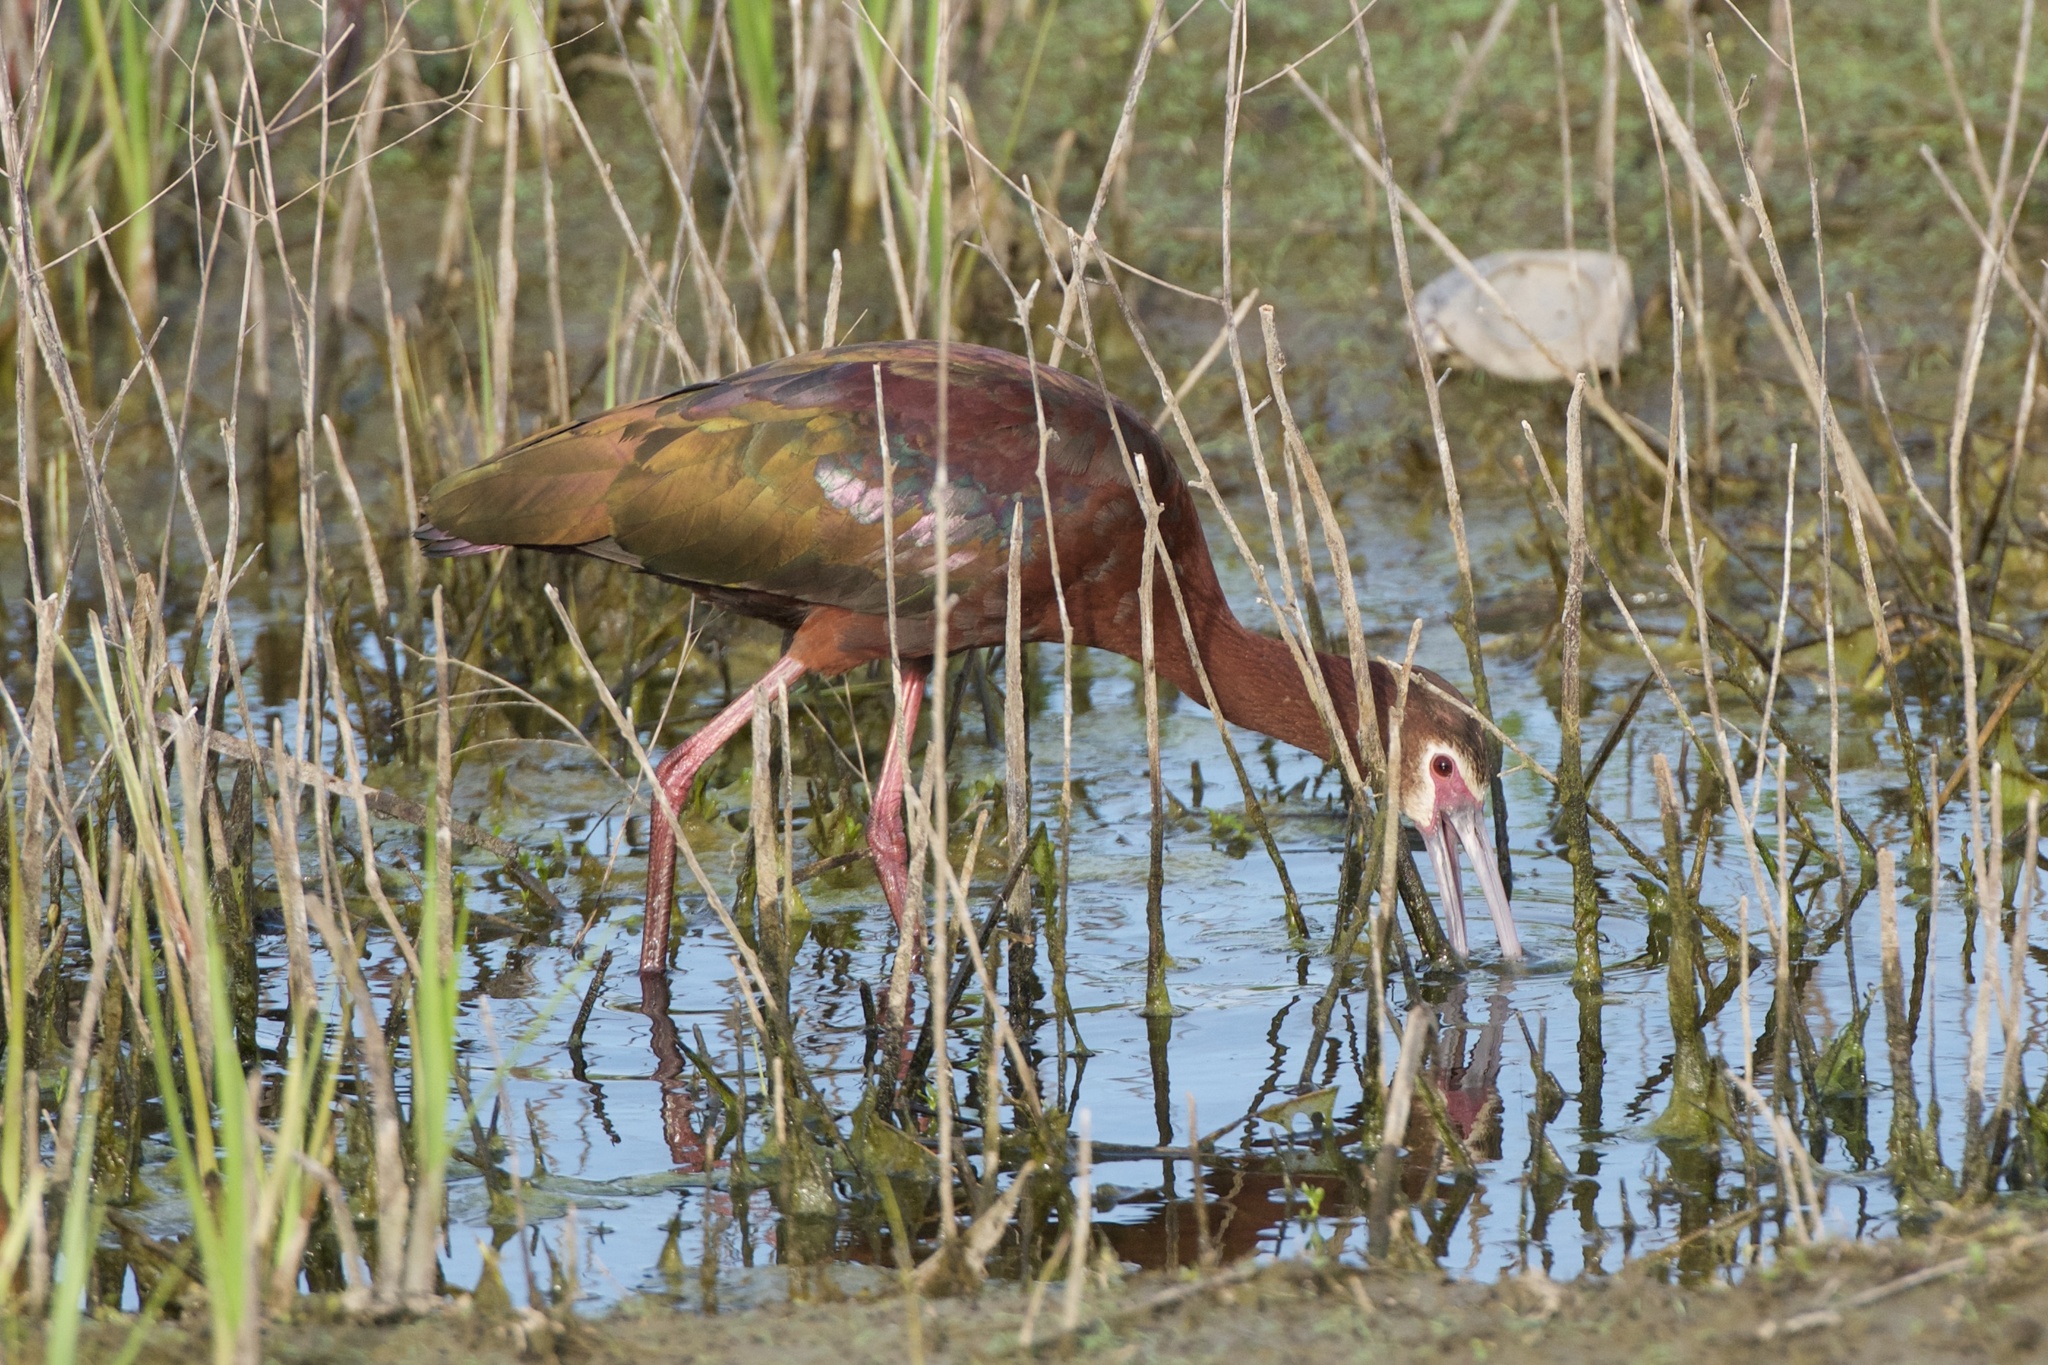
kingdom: Animalia
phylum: Chordata
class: Aves
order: Pelecaniformes
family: Threskiornithidae
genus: Plegadis
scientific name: Plegadis chihi
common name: White-faced ibis
